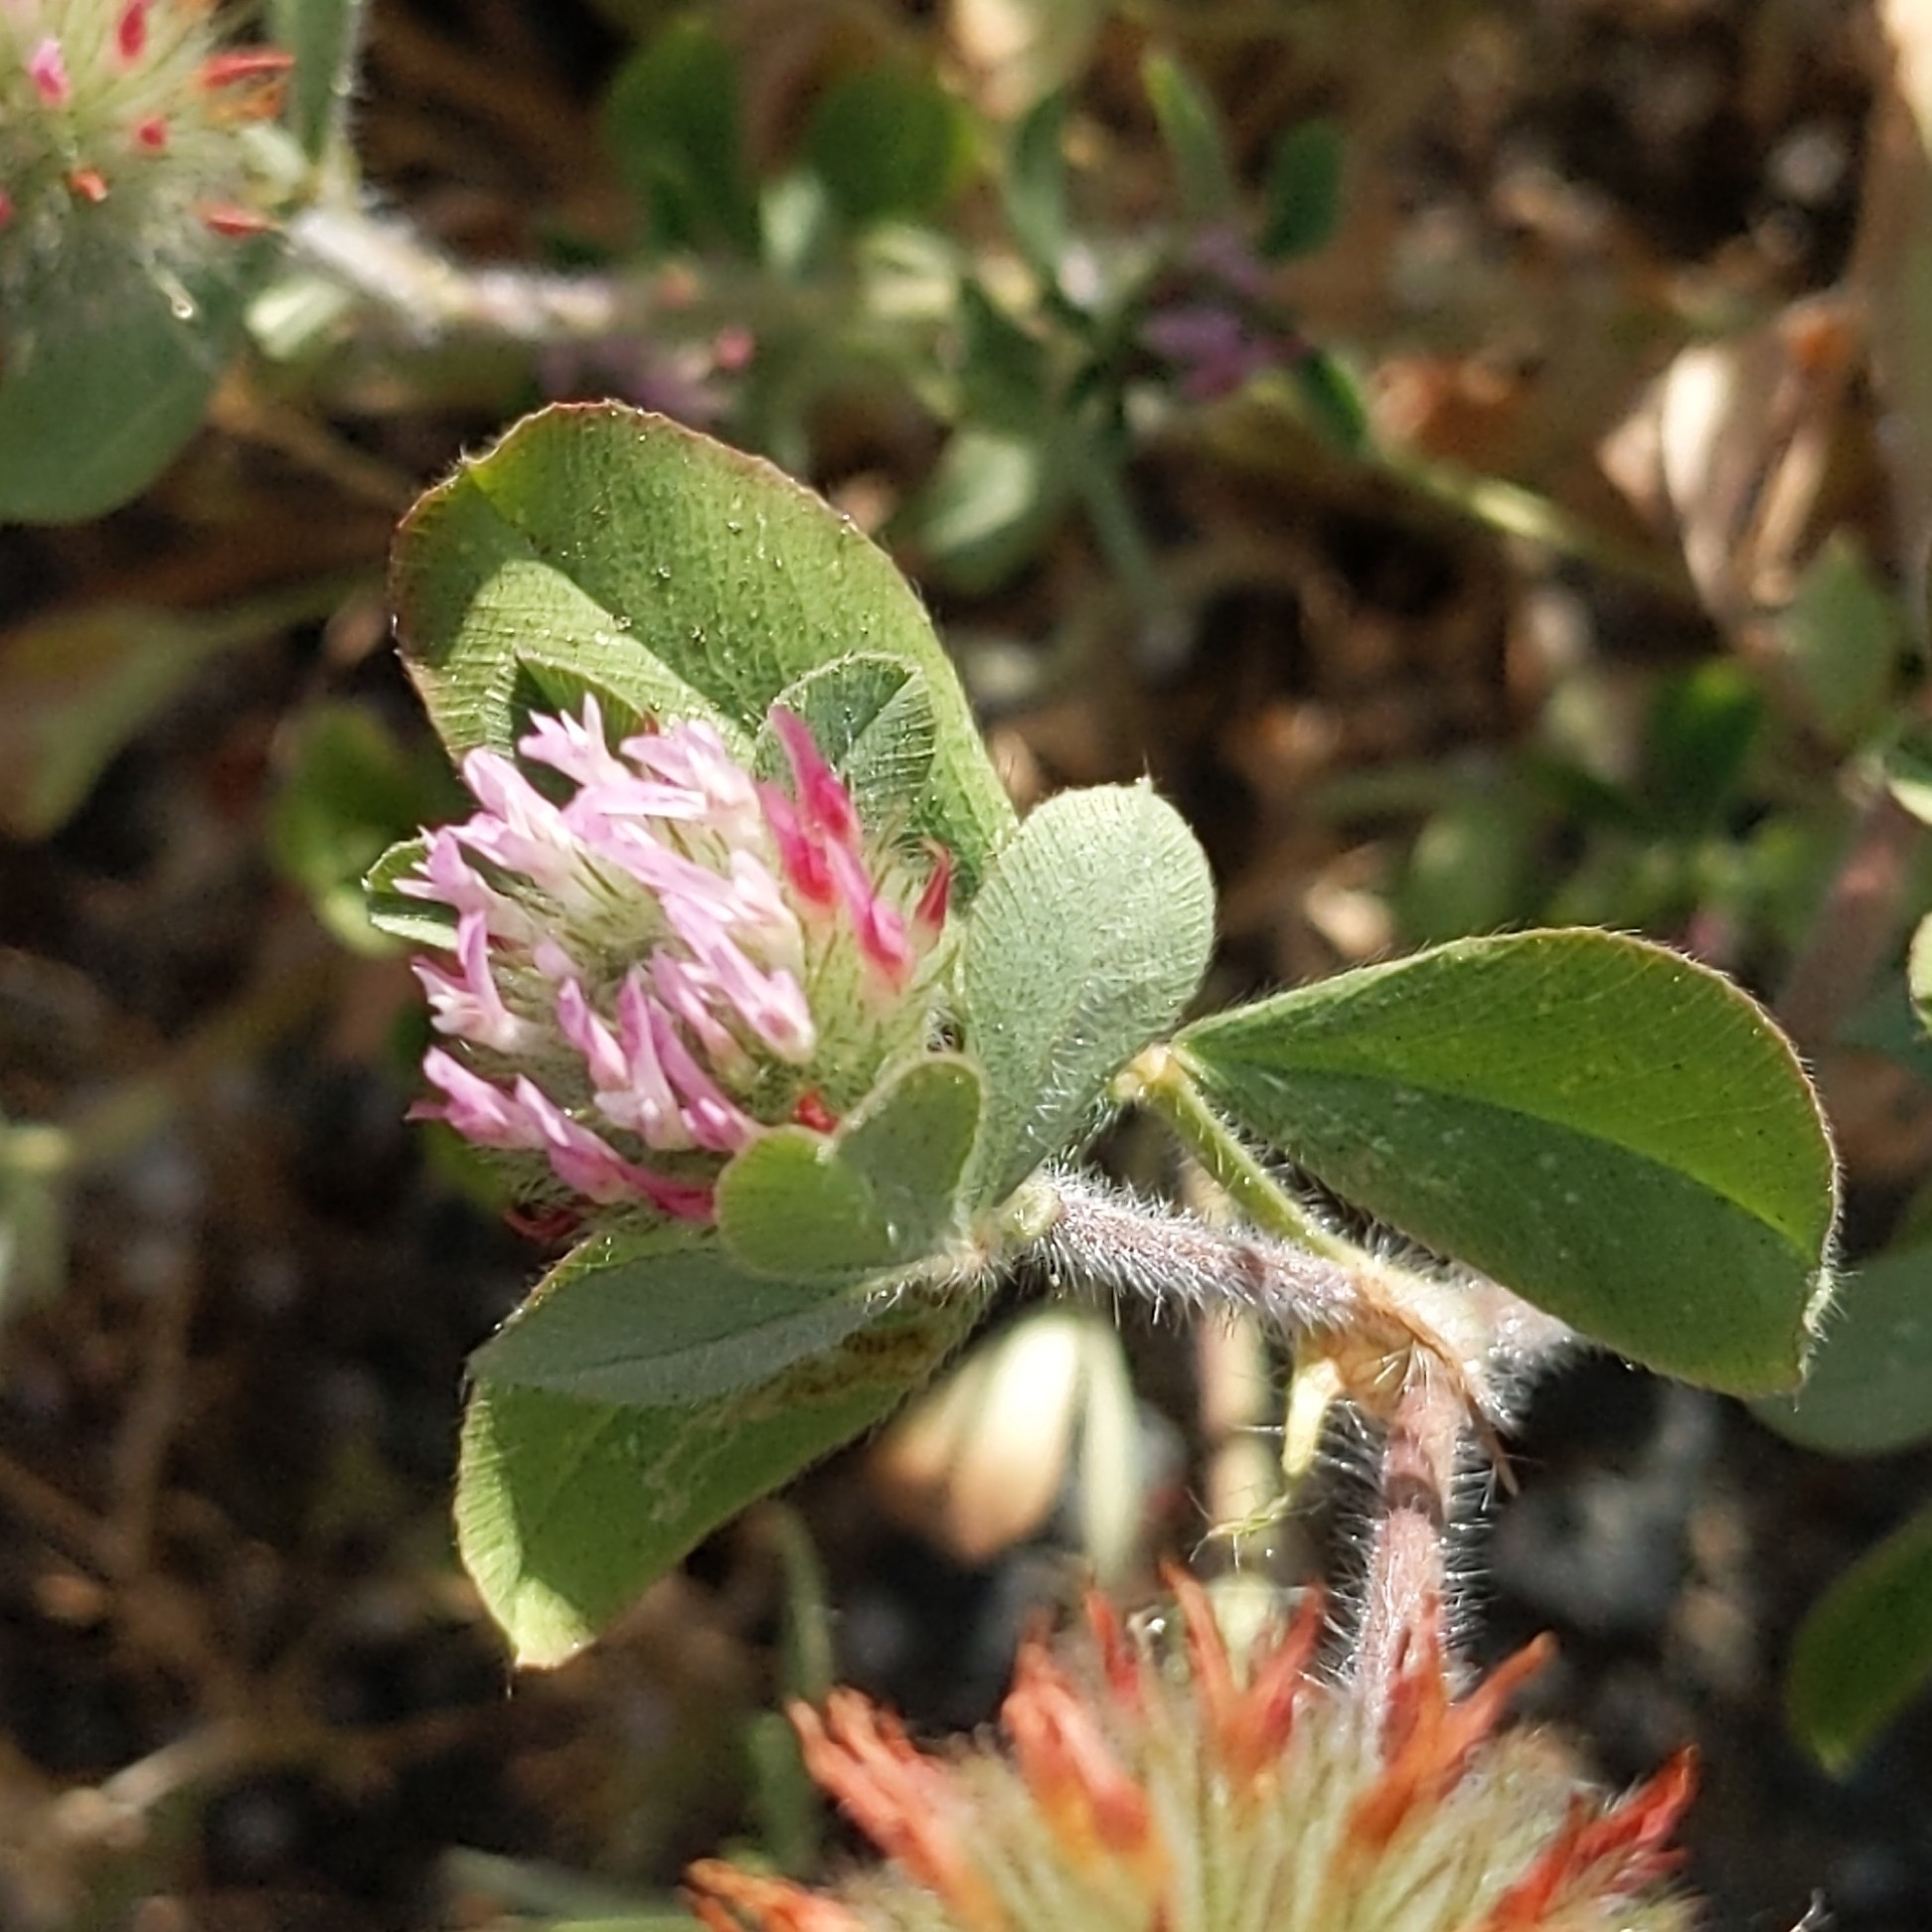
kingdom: Plantae
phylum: Tracheophyta
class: Magnoliopsida
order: Fabales
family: Fabaceae
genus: Trifolium
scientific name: Trifolium hirtum
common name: Rose clover
